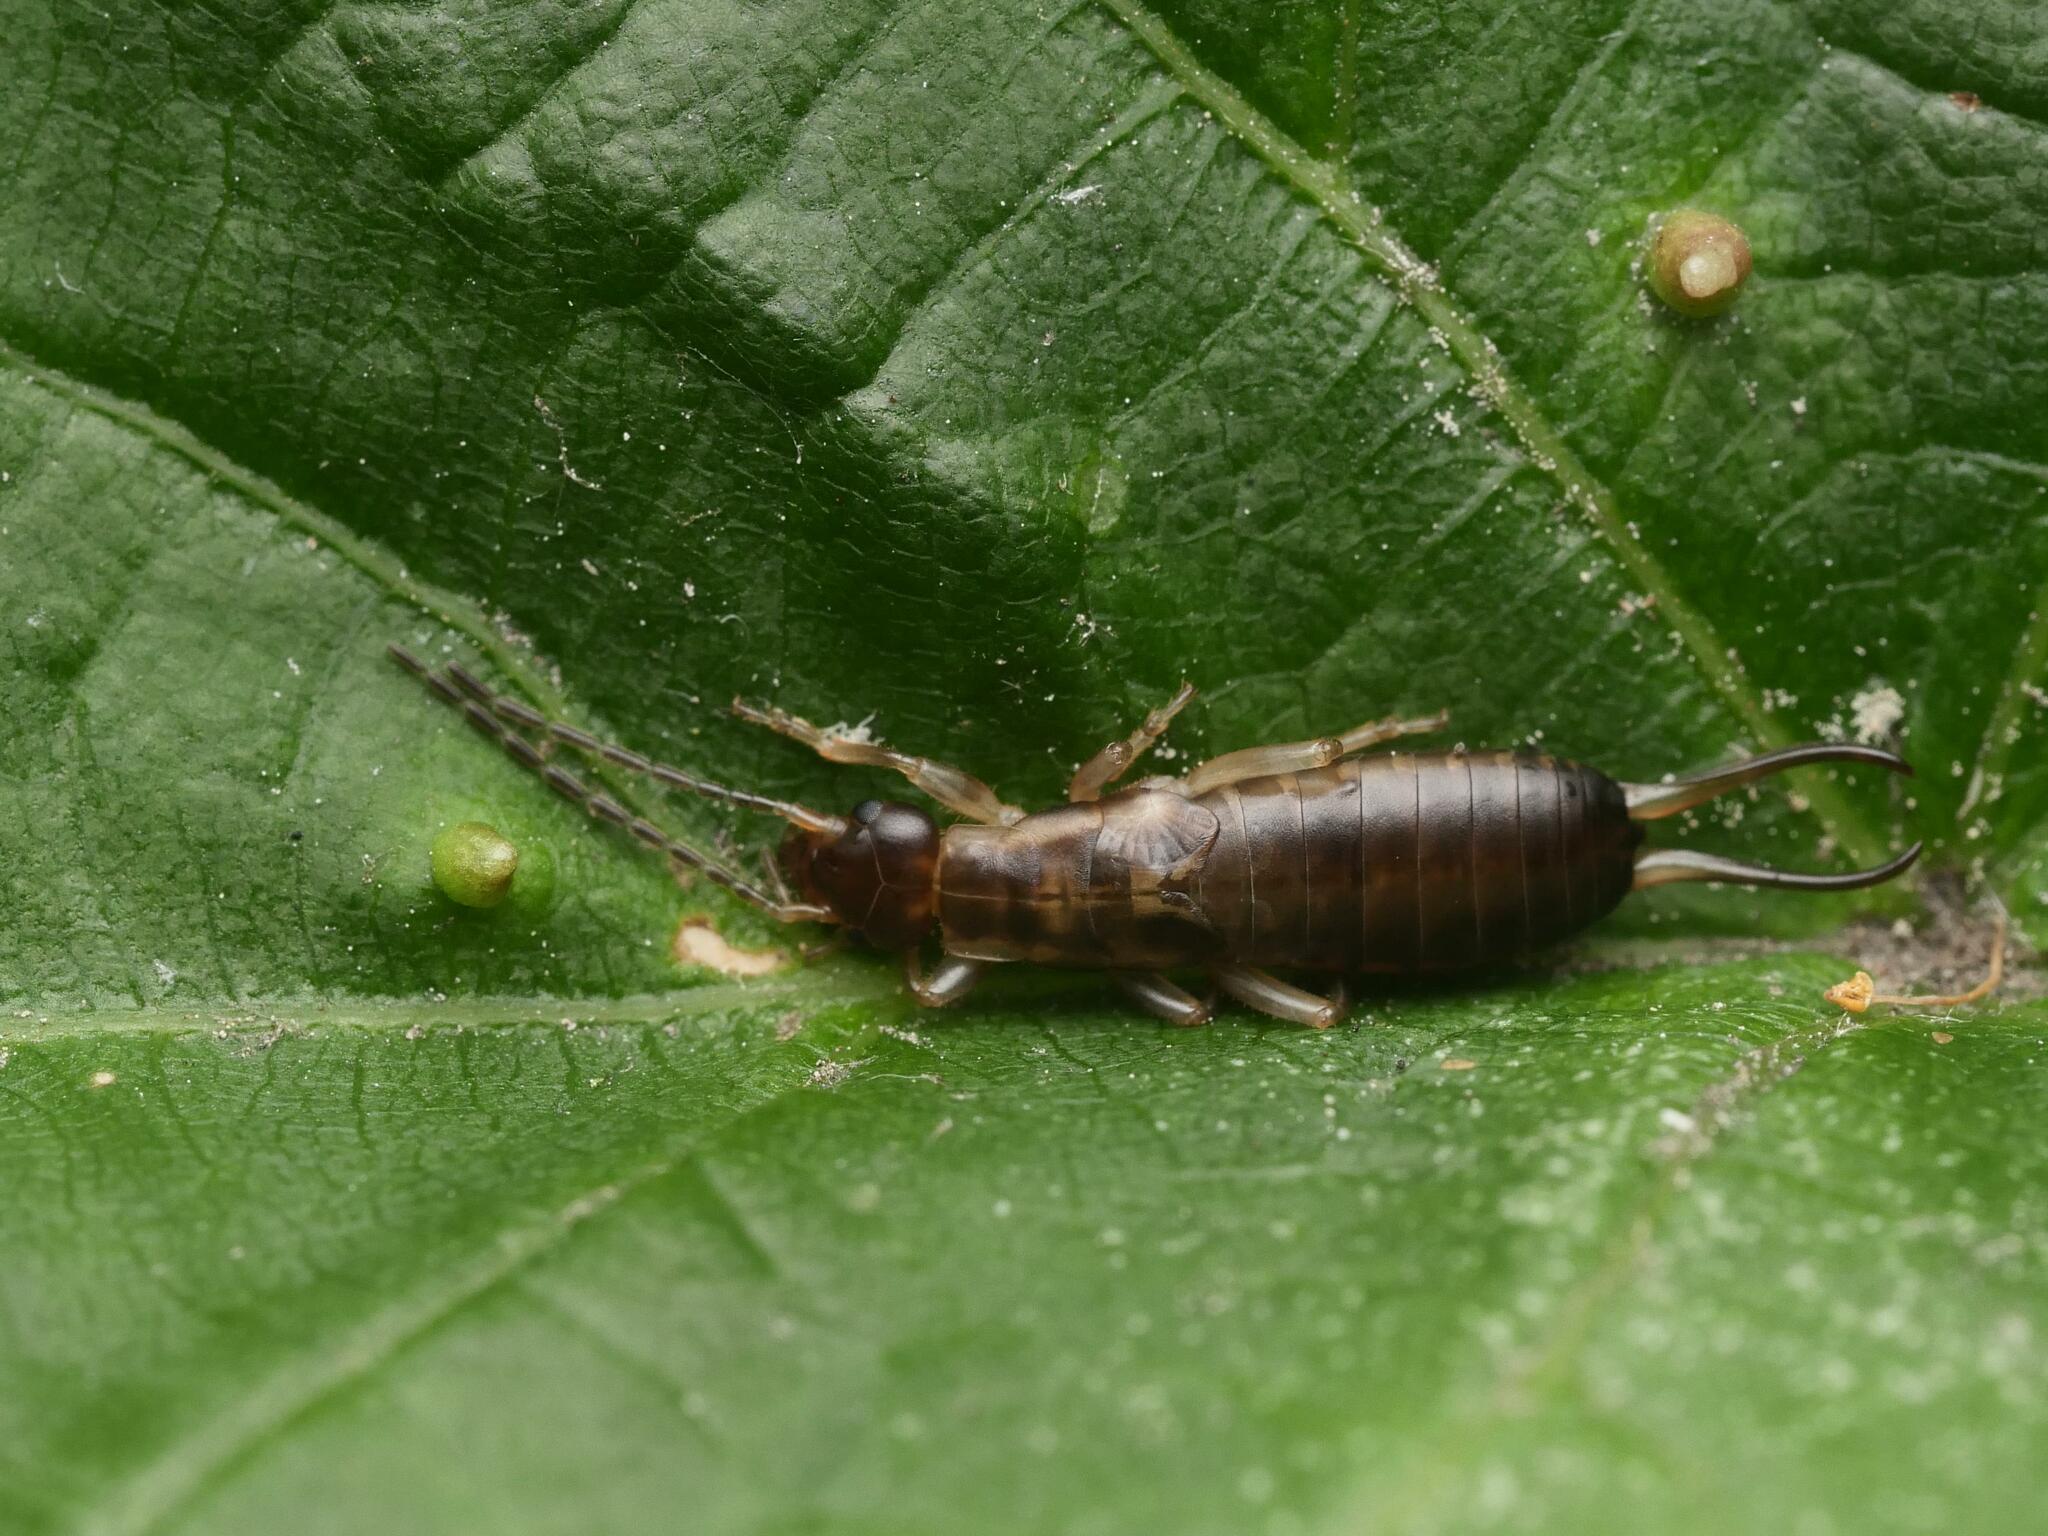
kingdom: Animalia
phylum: Arthropoda
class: Insecta
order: Dermaptera
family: Forficulidae
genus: Forficula
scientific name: Forficula
